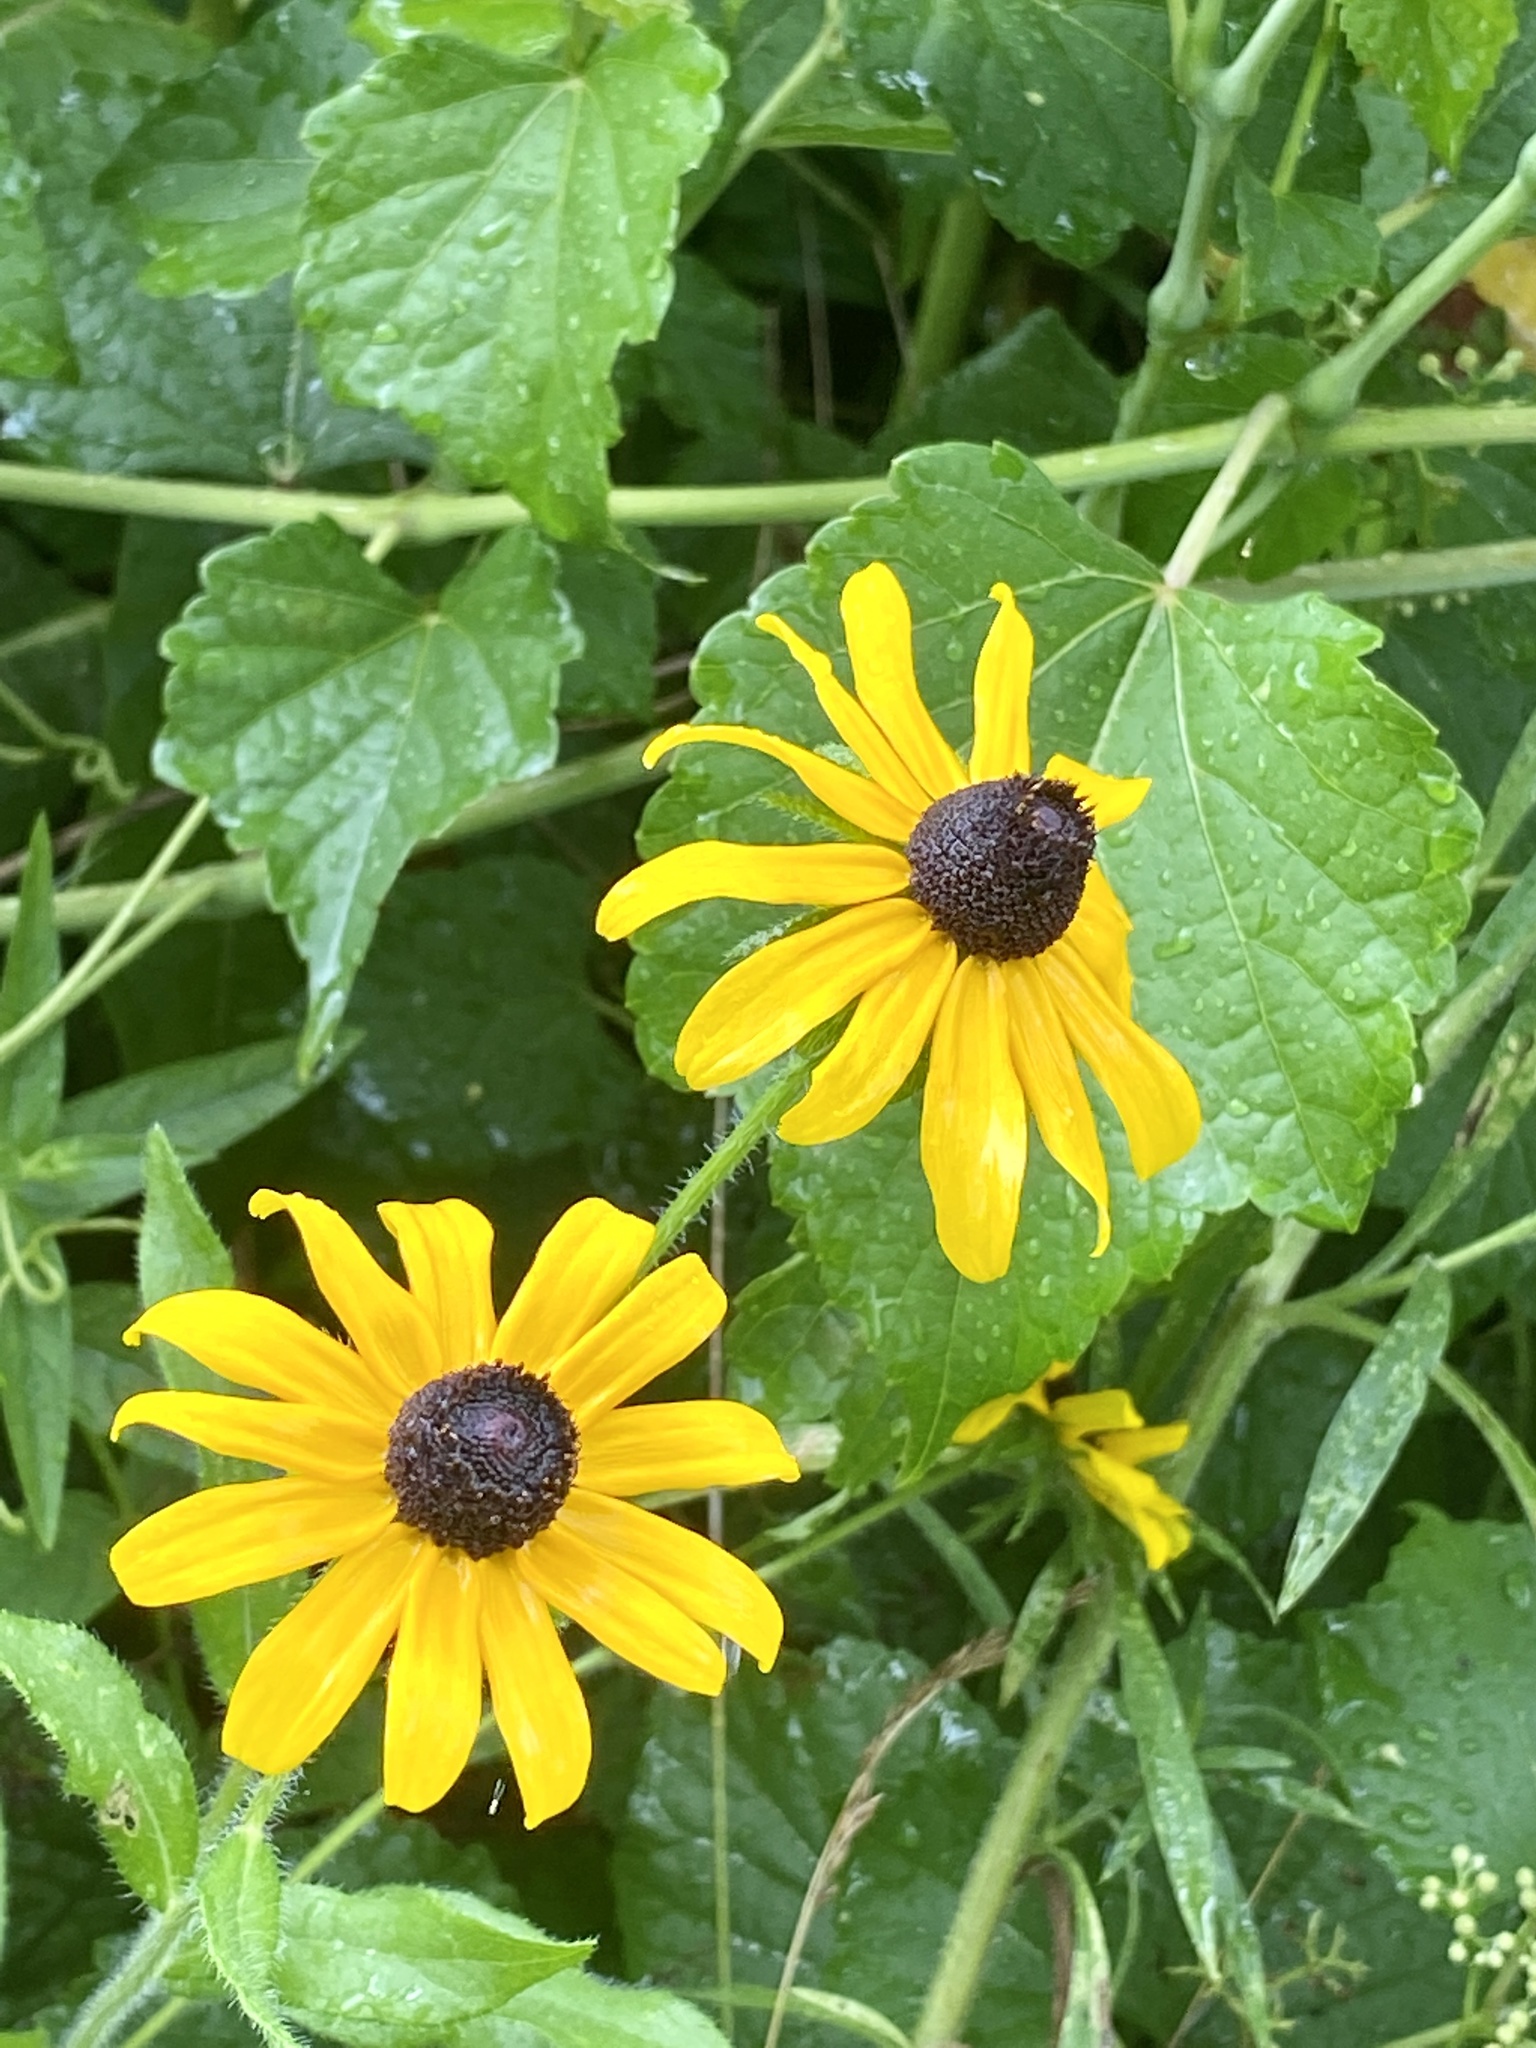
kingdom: Plantae
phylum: Tracheophyta
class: Magnoliopsida
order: Asterales
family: Asteraceae
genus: Rudbeckia
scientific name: Rudbeckia hirta
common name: Black-eyed-susan
